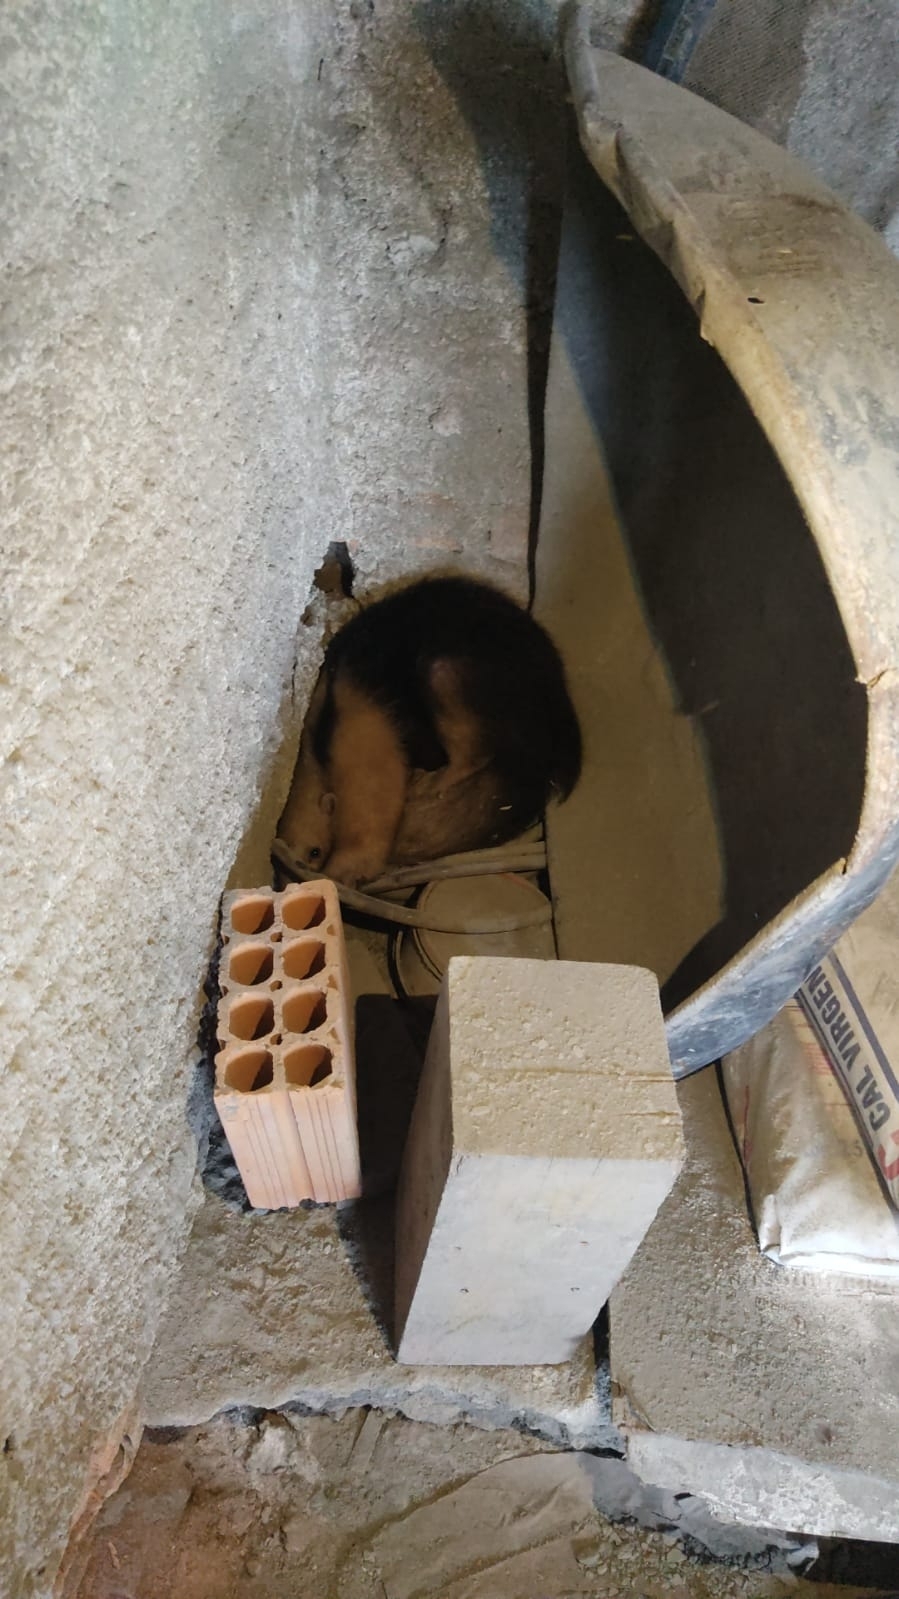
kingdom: Animalia
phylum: Chordata
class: Mammalia
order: Pilosa
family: Myrmecophagidae
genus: Tamandua
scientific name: Tamandua tetradactyla
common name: Southern tamandua
